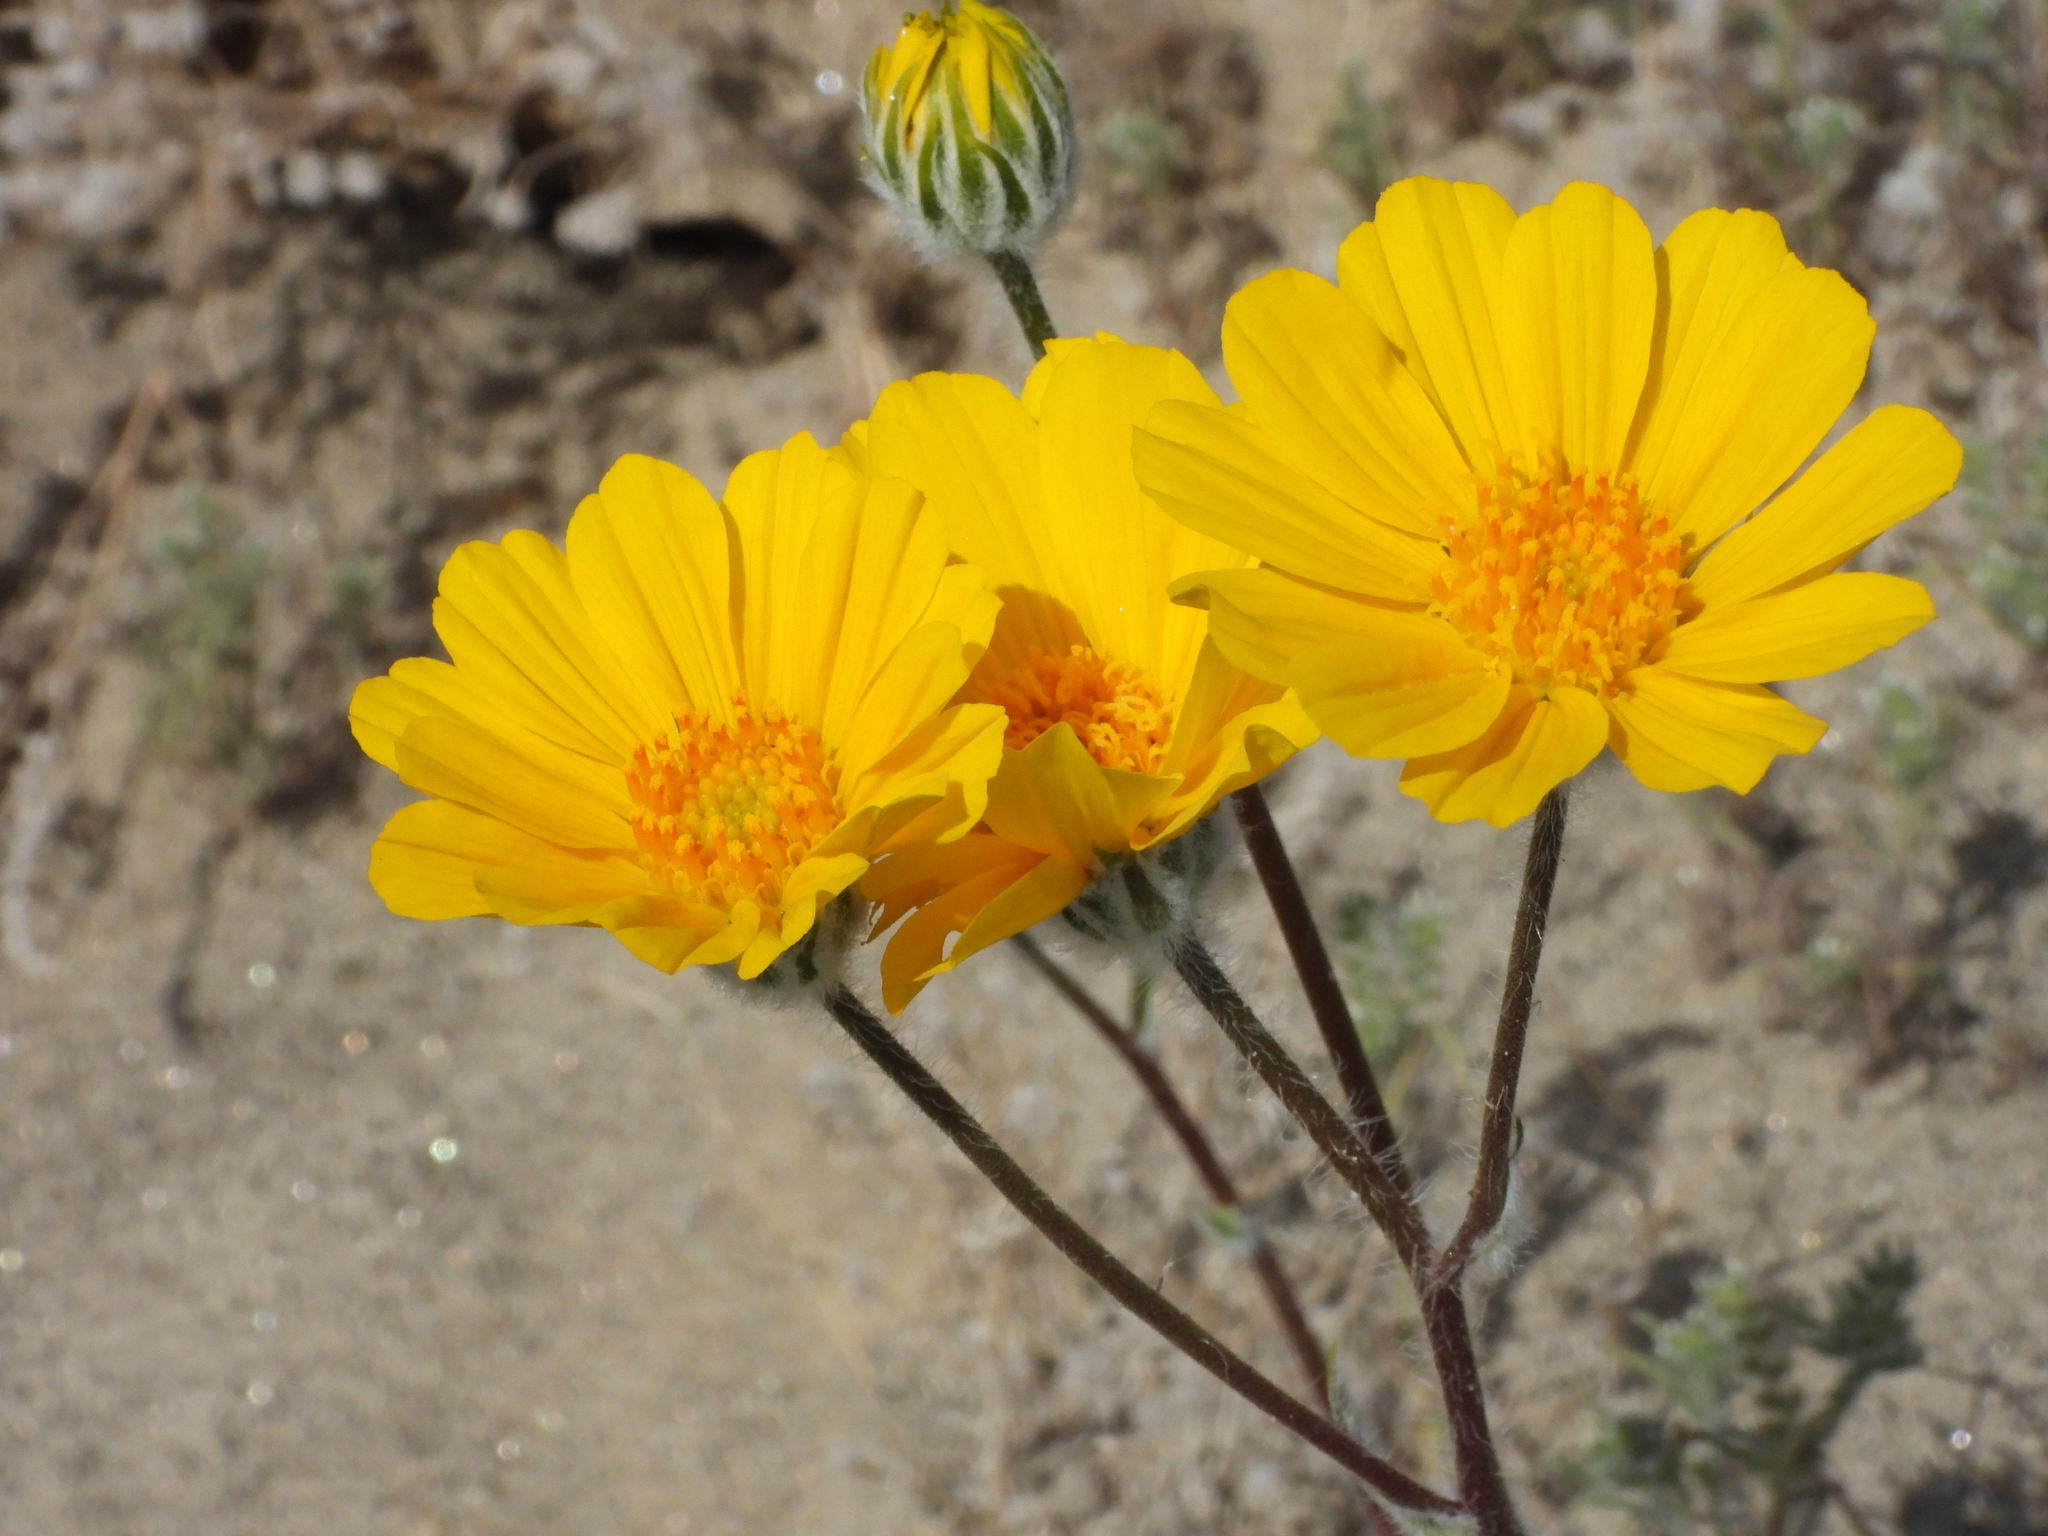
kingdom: Plantae
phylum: Tracheophyta
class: Magnoliopsida
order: Asterales
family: Asteraceae
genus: Geraea
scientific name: Geraea canescens
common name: Desert-gold
